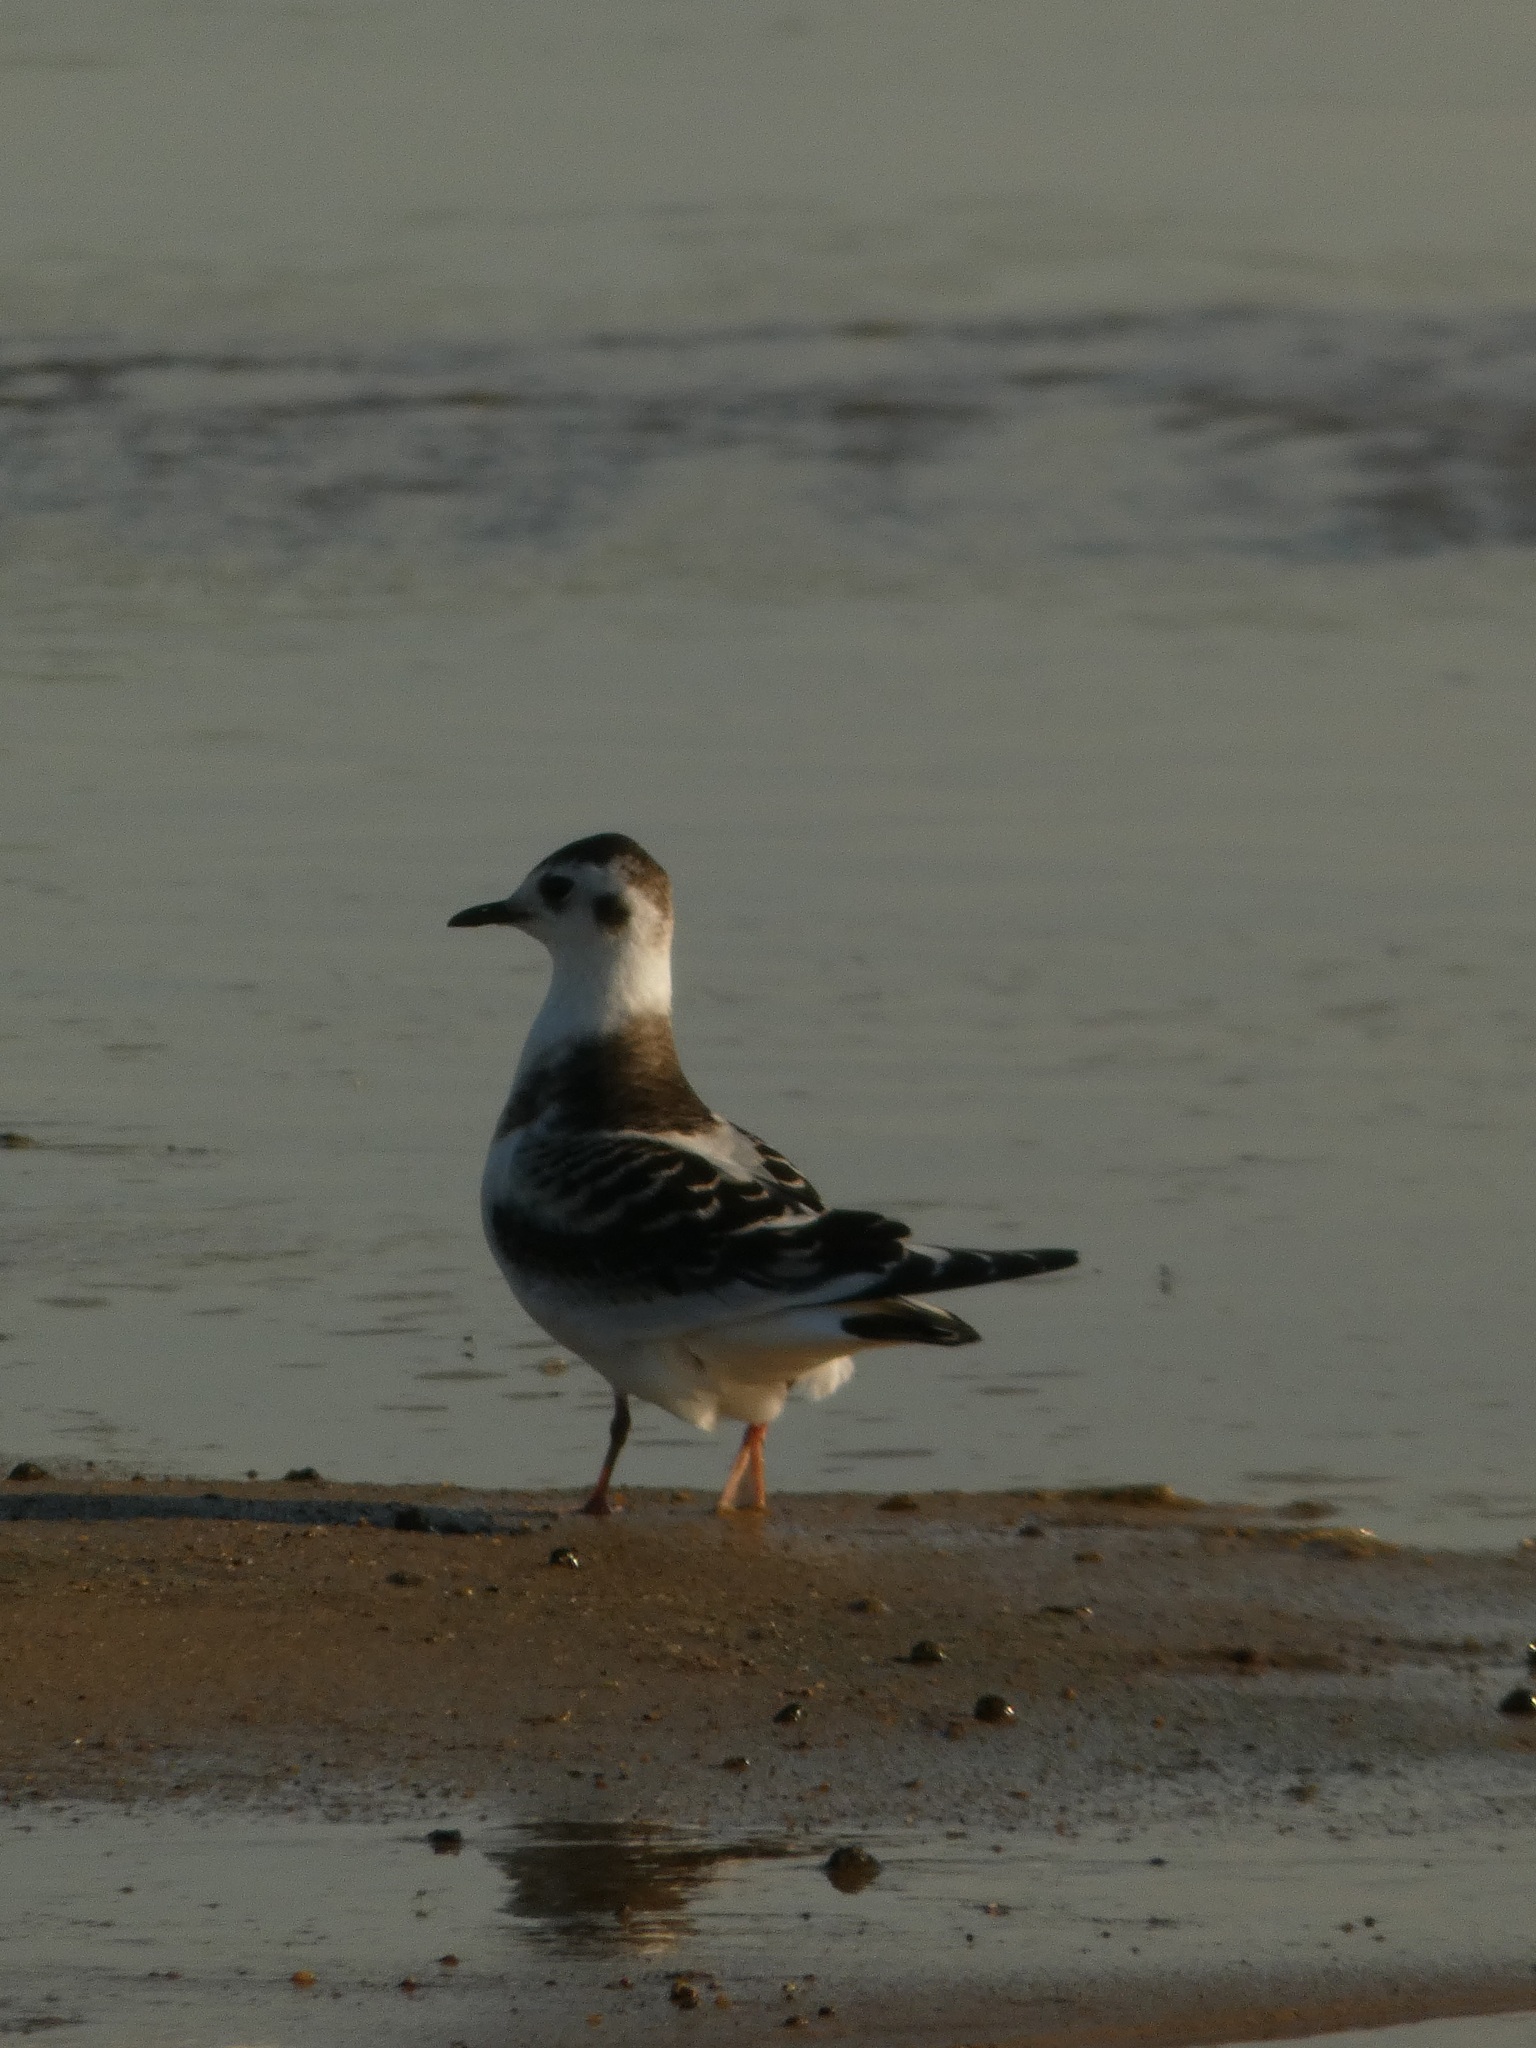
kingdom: Animalia
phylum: Chordata
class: Aves
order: Charadriiformes
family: Laridae
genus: Hydrocoloeus
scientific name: Hydrocoloeus minutus
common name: Little gull
